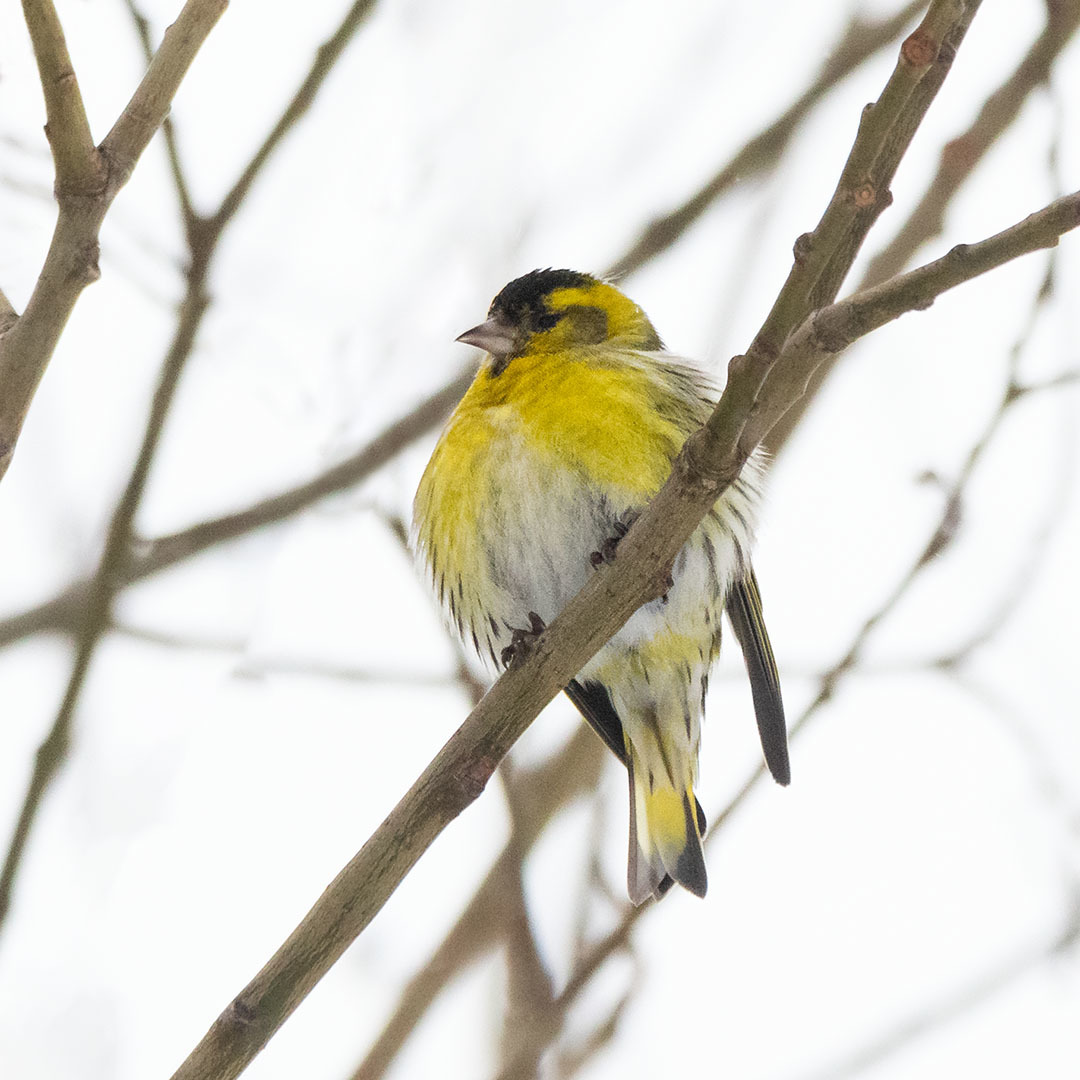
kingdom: Animalia
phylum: Chordata
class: Aves
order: Passeriformes
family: Fringillidae
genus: Spinus
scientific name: Spinus spinus
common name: Eurasian siskin
